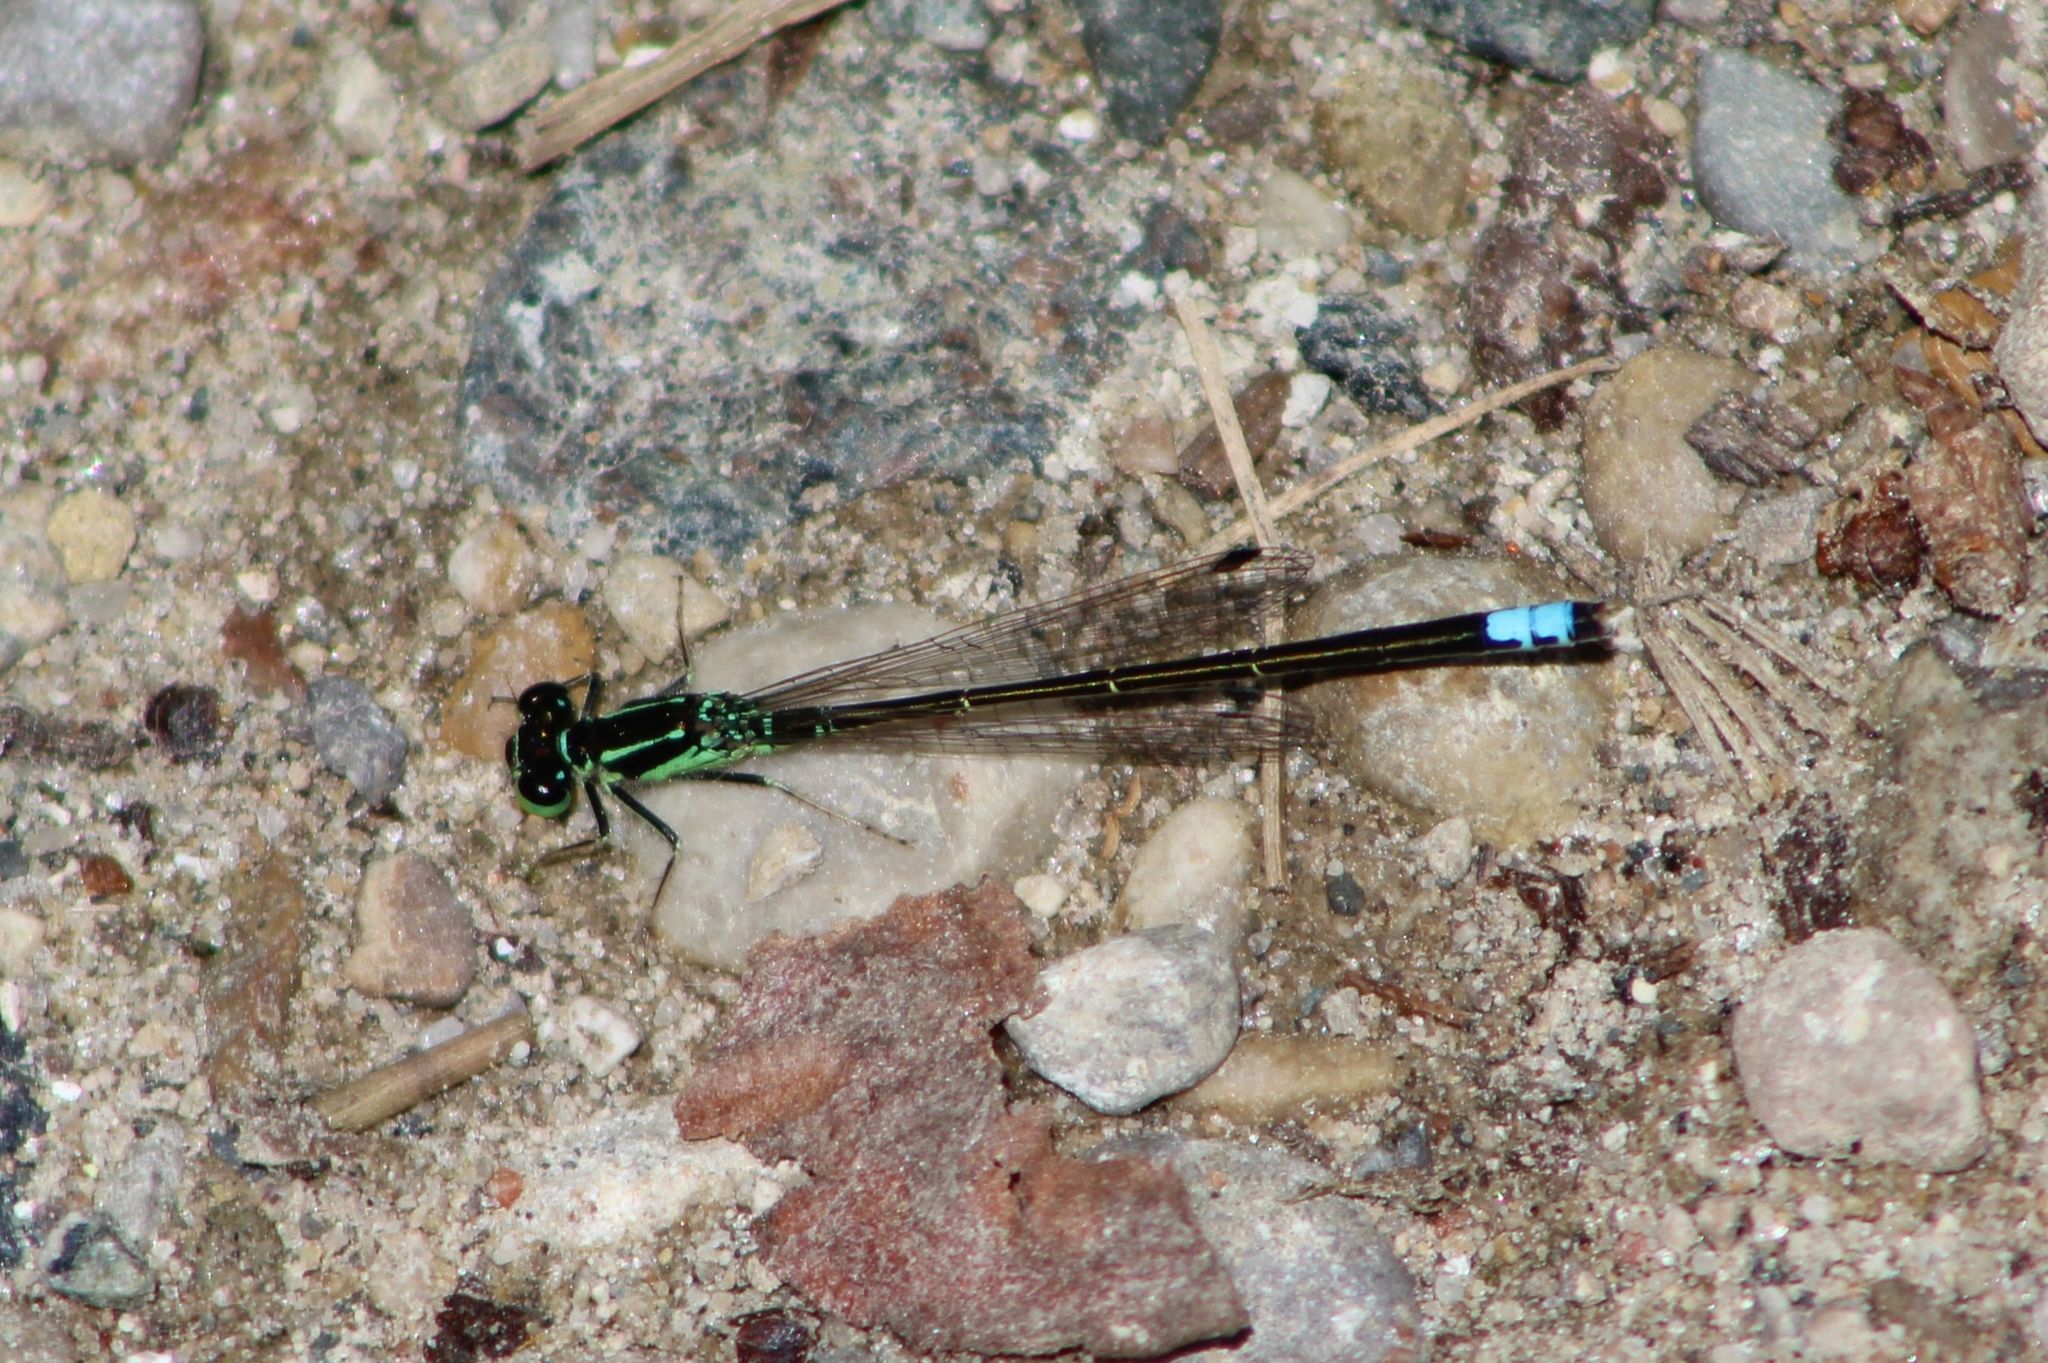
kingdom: Animalia
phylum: Arthropoda
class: Insecta
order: Odonata
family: Coenagrionidae
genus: Ischnura
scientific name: Ischnura verticalis
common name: Eastern forktail
